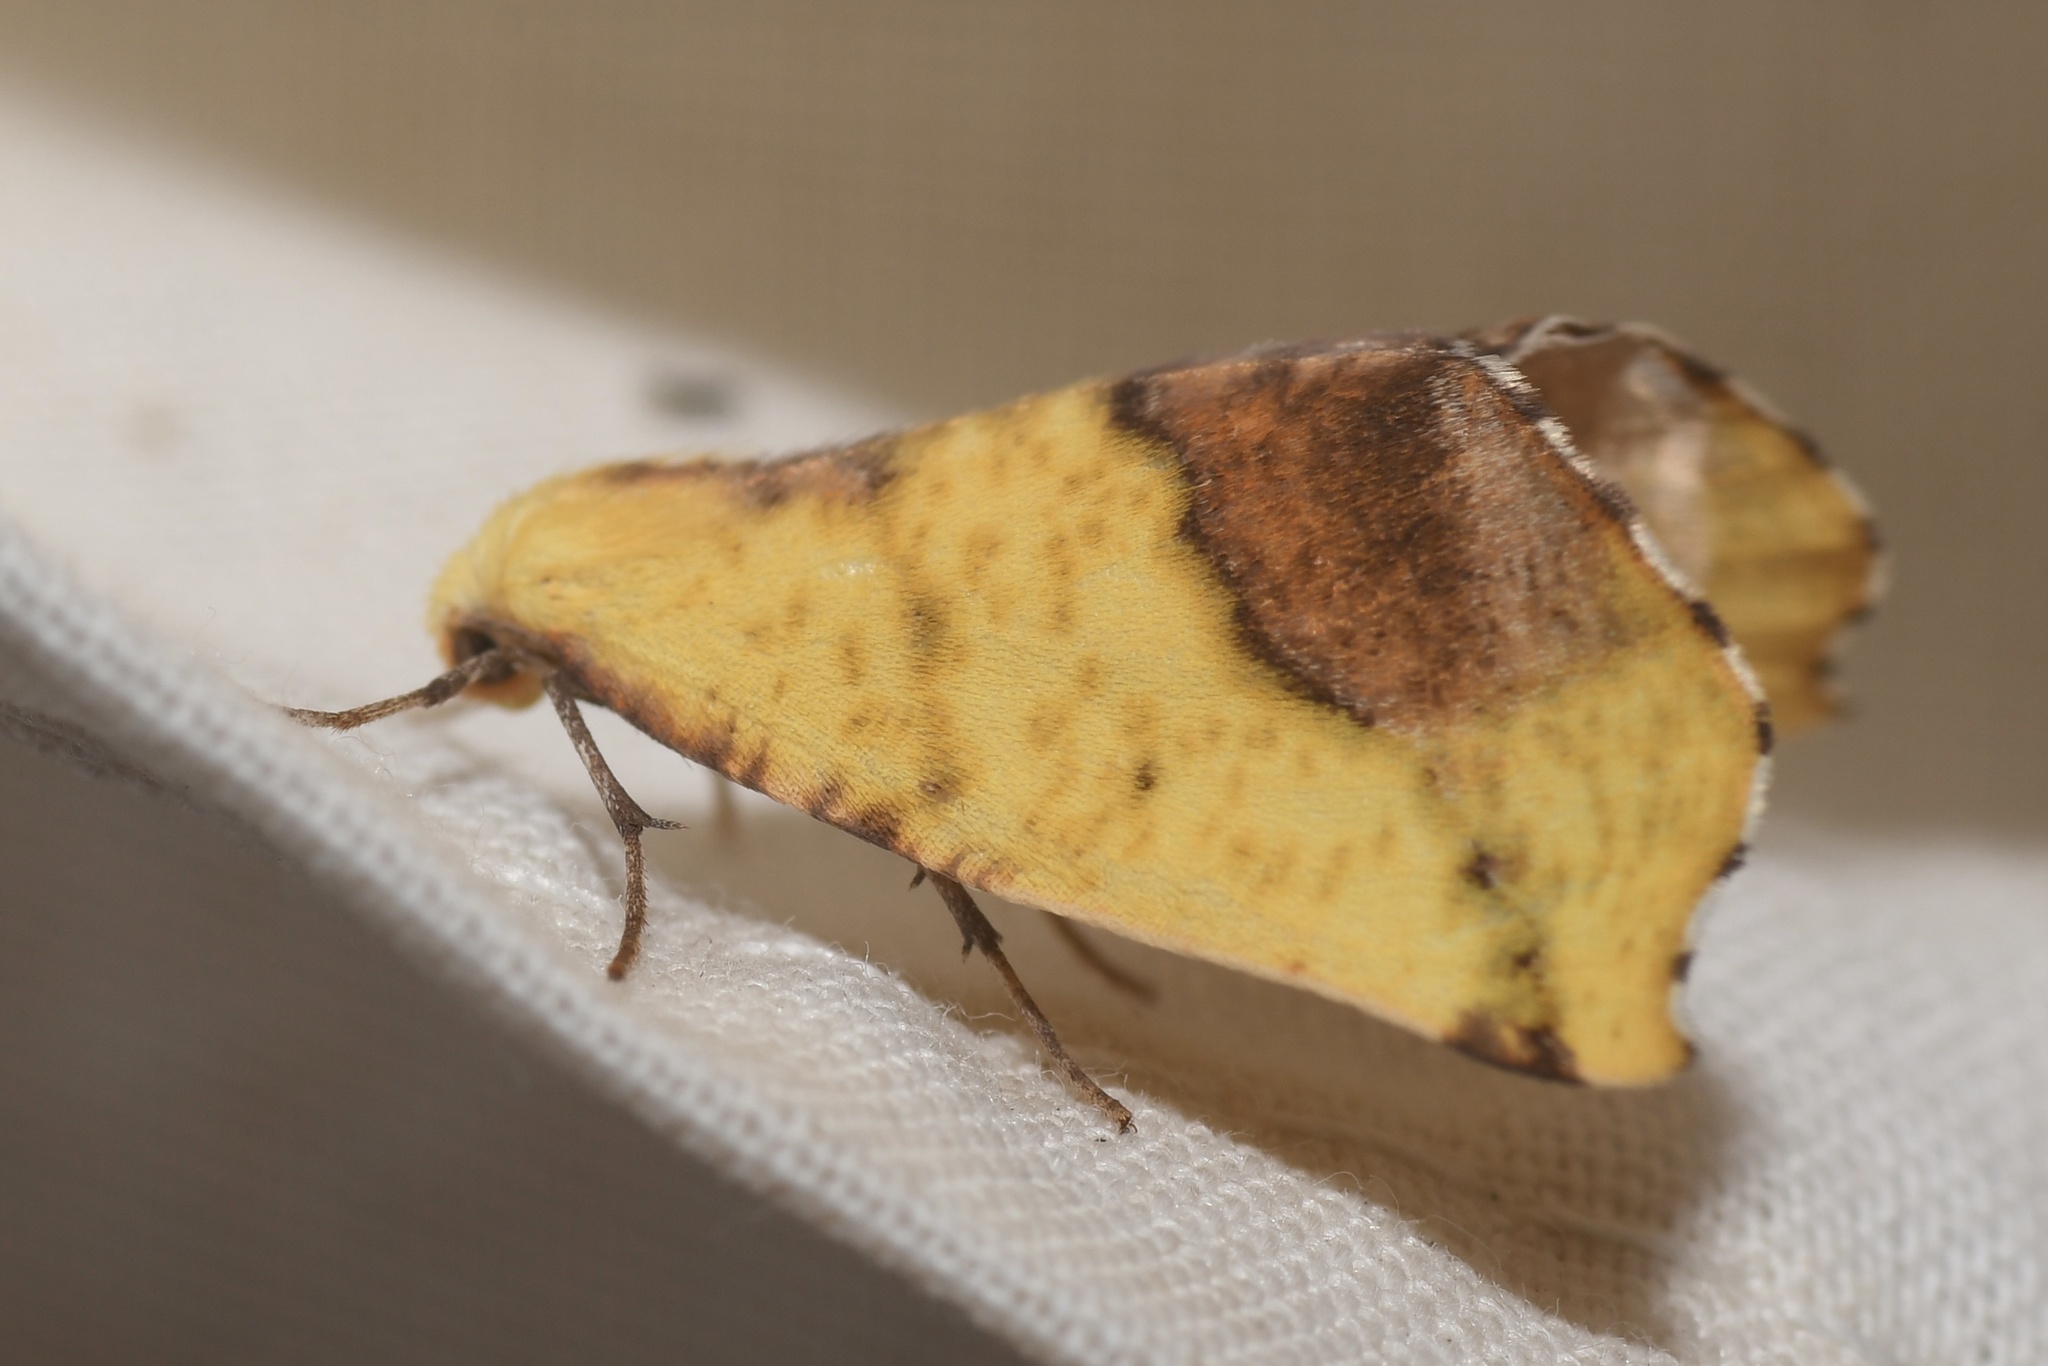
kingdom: Animalia
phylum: Arthropoda
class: Insecta
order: Lepidoptera
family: Geometridae
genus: Sicya
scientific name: Sicya macularia
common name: Sharp-lined yellow
